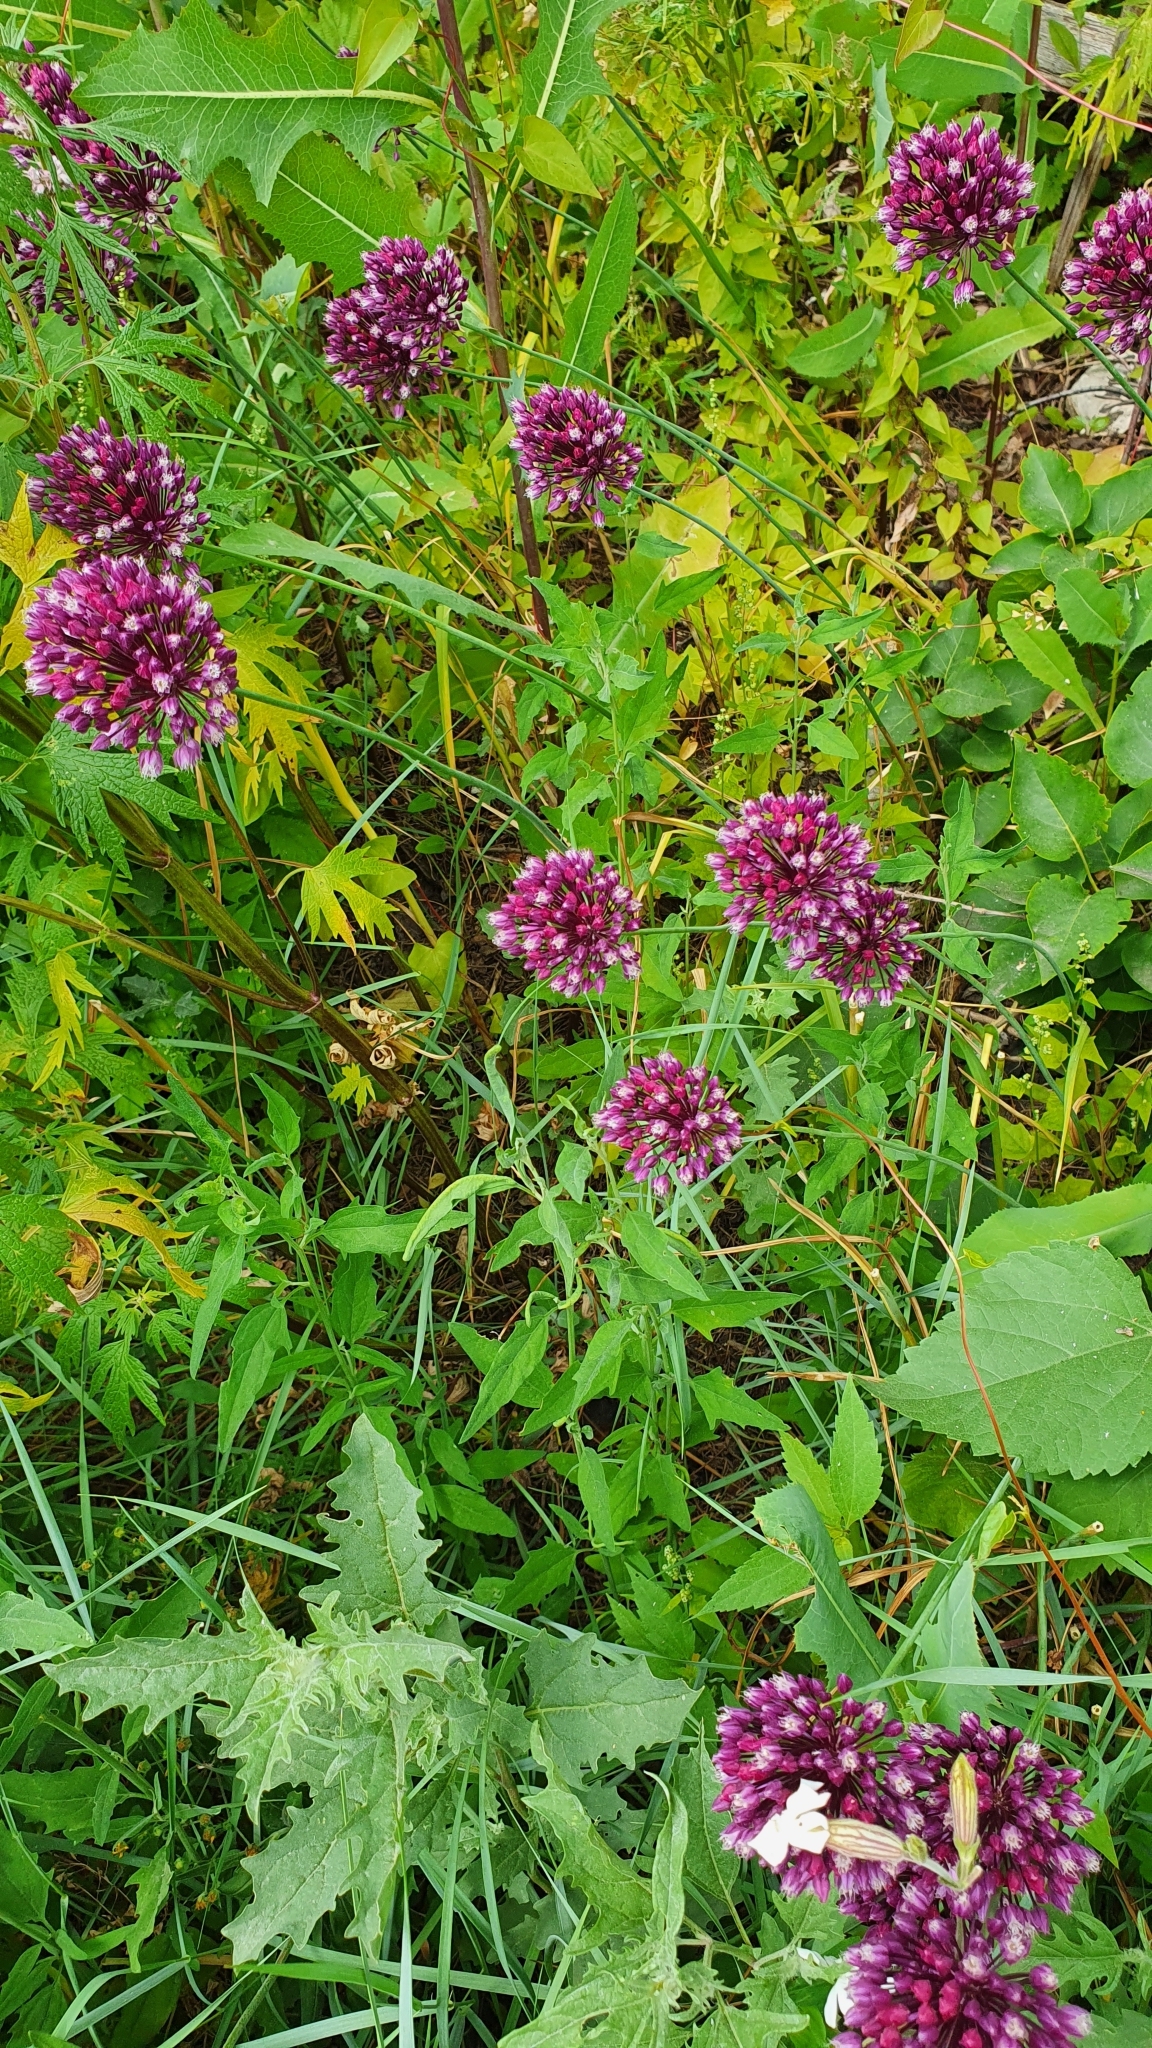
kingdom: Plantae
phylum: Tracheophyta
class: Liliopsida
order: Asparagales
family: Amaryllidaceae
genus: Allium
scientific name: Allium rotundum
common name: Sand leek
